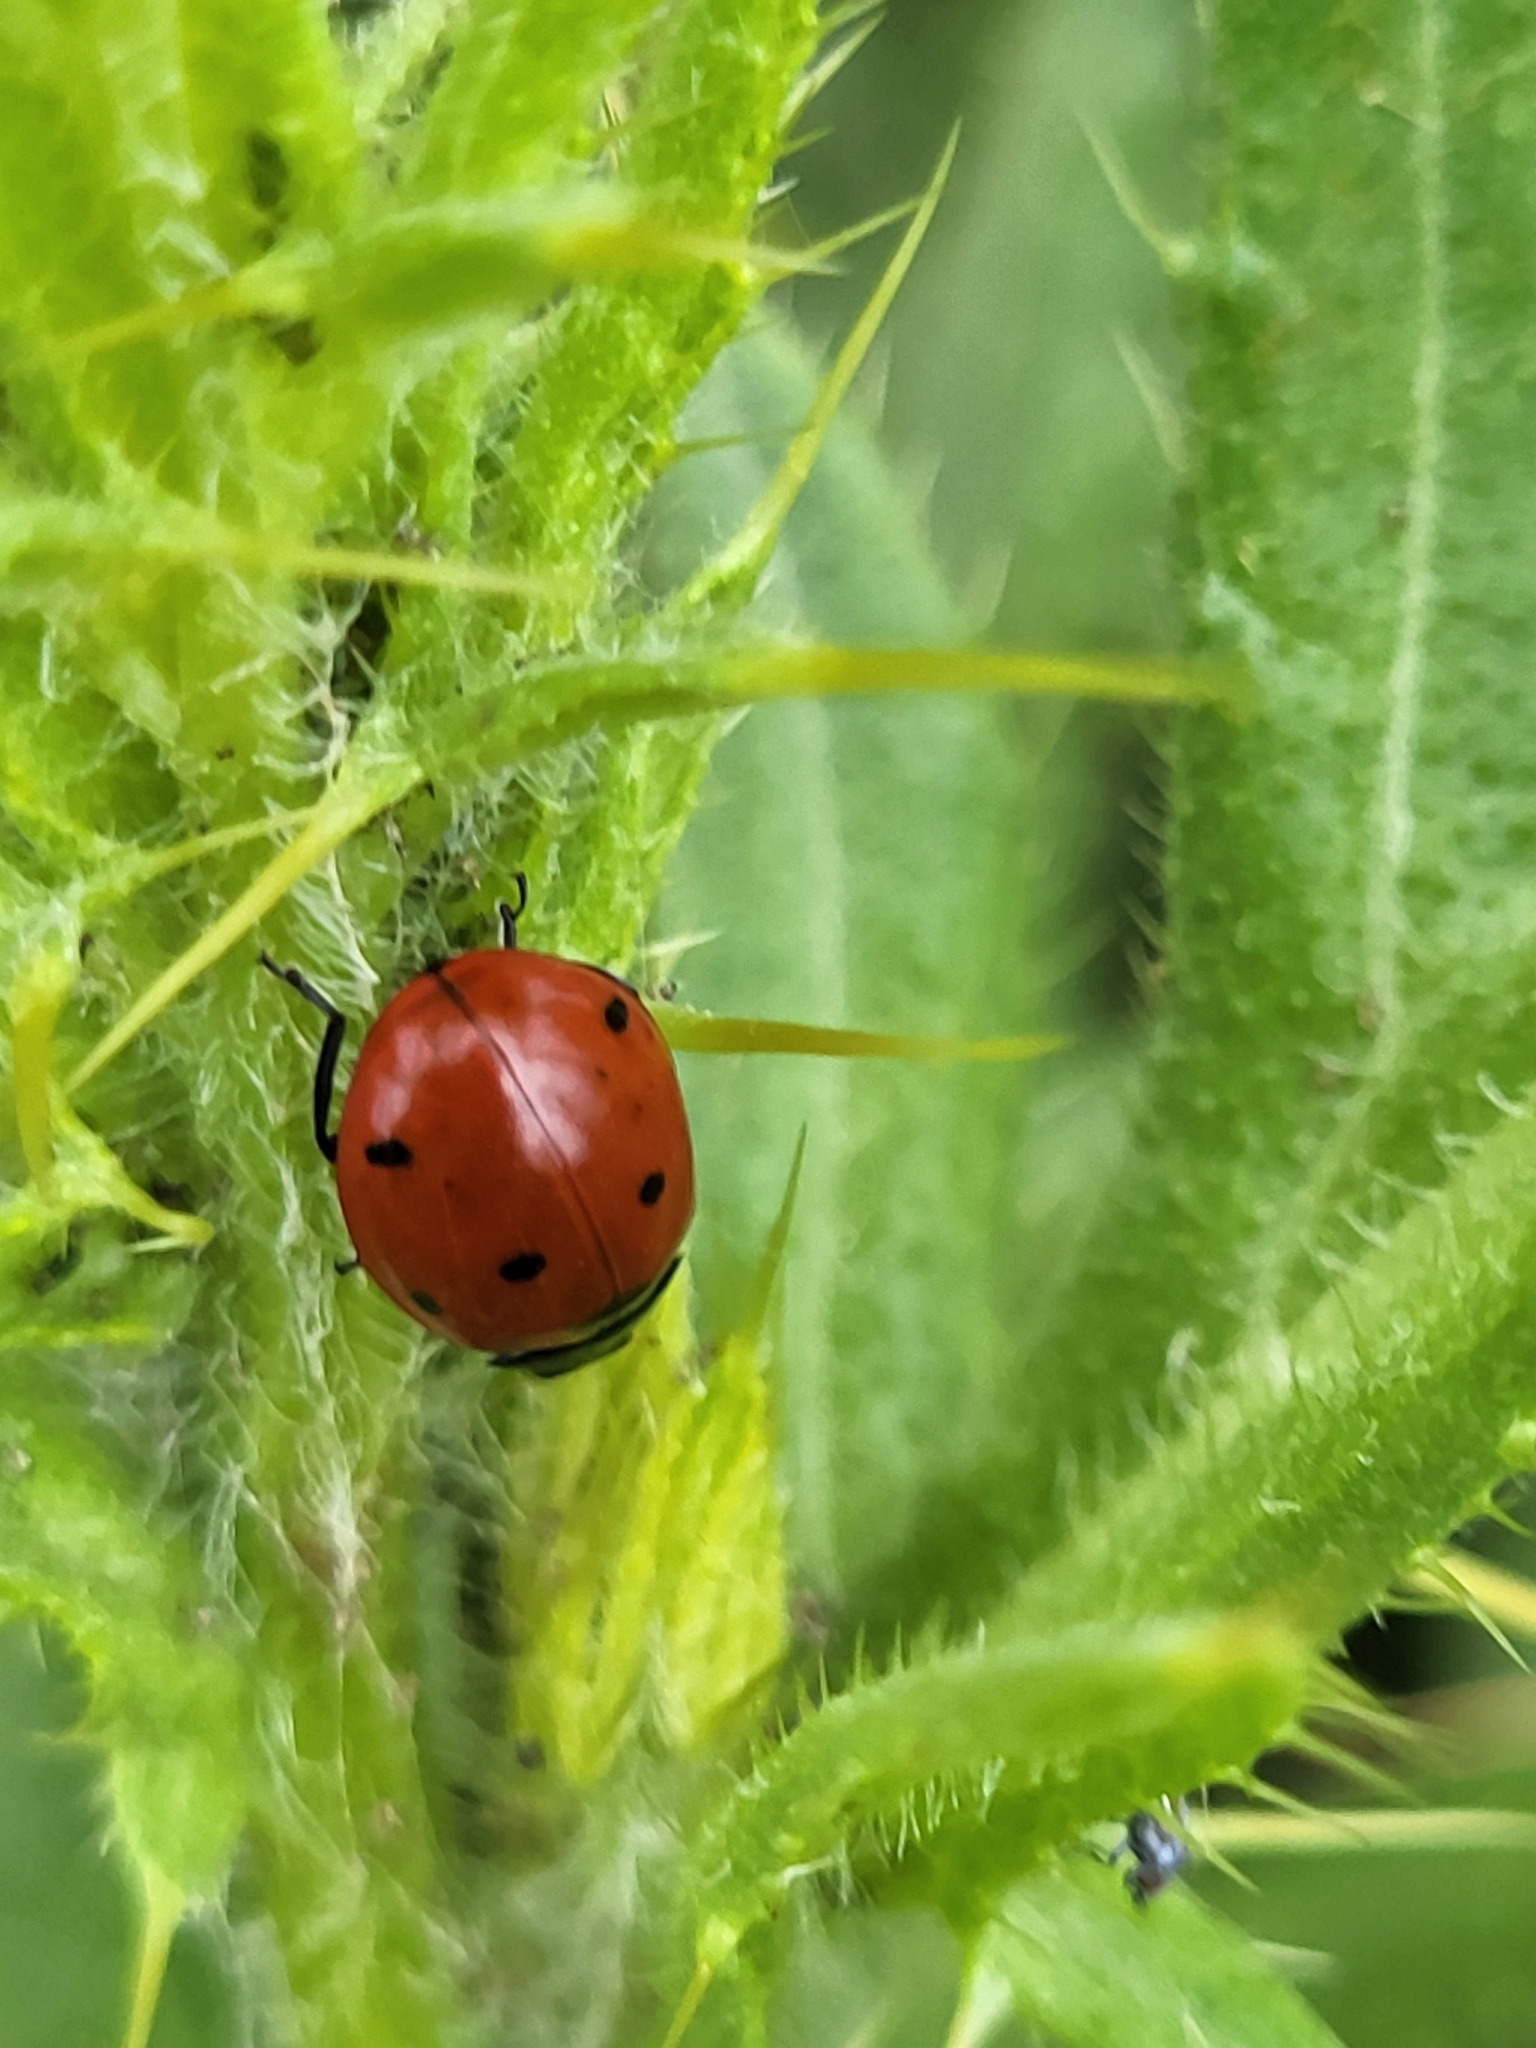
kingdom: Animalia
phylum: Arthropoda
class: Insecta
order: Coleoptera
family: Coccinellidae
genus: Coccinella
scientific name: Coccinella septempunctata
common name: Sevenspotted lady beetle
